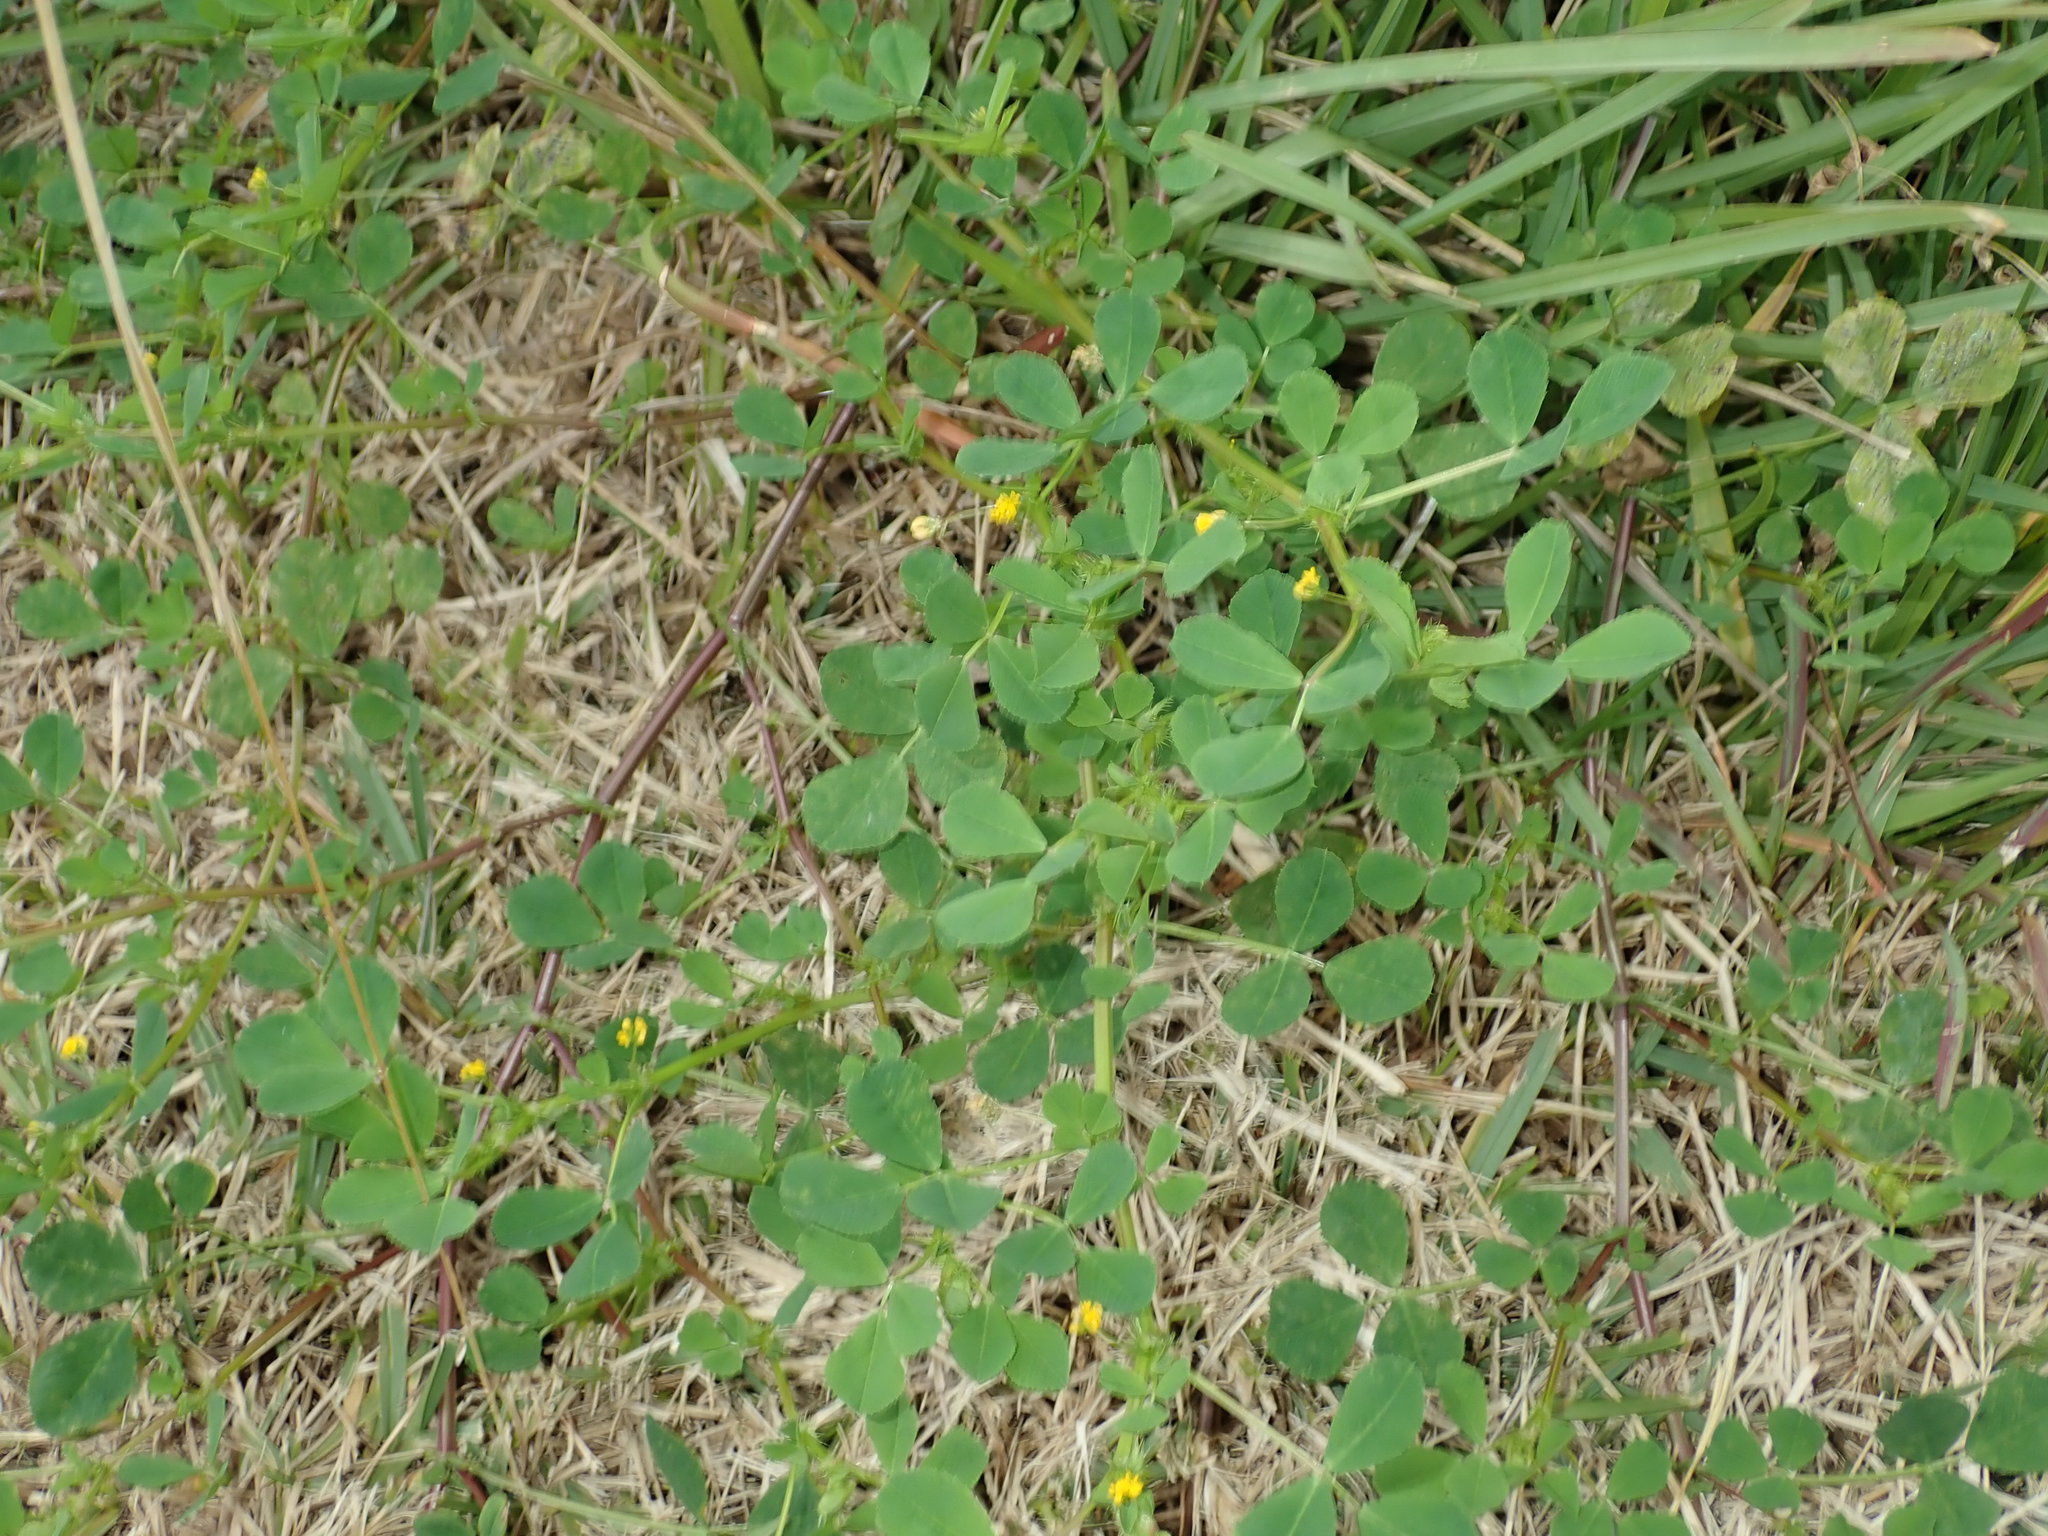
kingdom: Plantae
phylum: Tracheophyta
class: Magnoliopsida
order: Fabales
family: Fabaceae
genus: Medicago
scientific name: Medicago polymorpha
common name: Burclover
